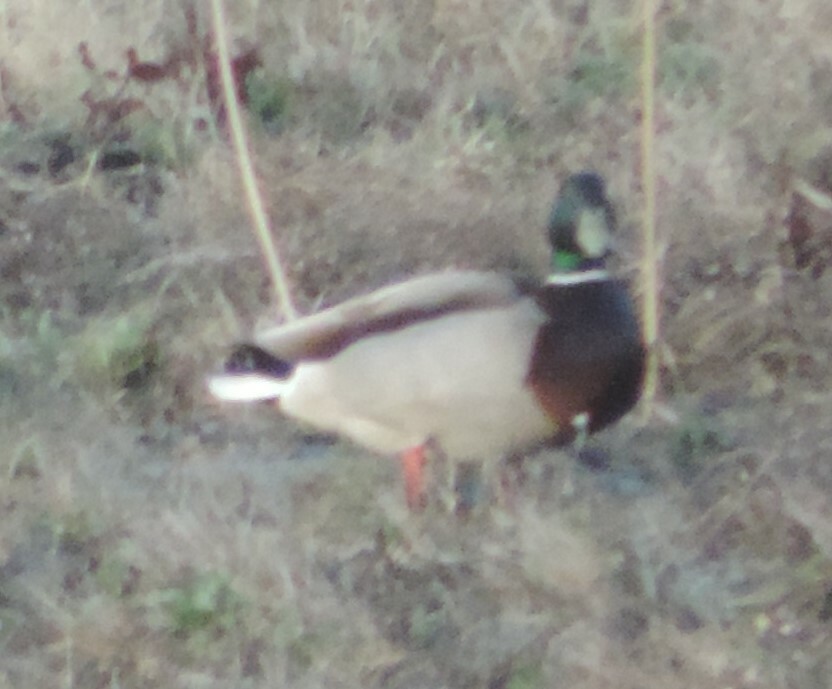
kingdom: Animalia
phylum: Chordata
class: Aves
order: Anseriformes
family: Anatidae
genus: Anas
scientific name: Anas platyrhynchos
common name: Mallard
